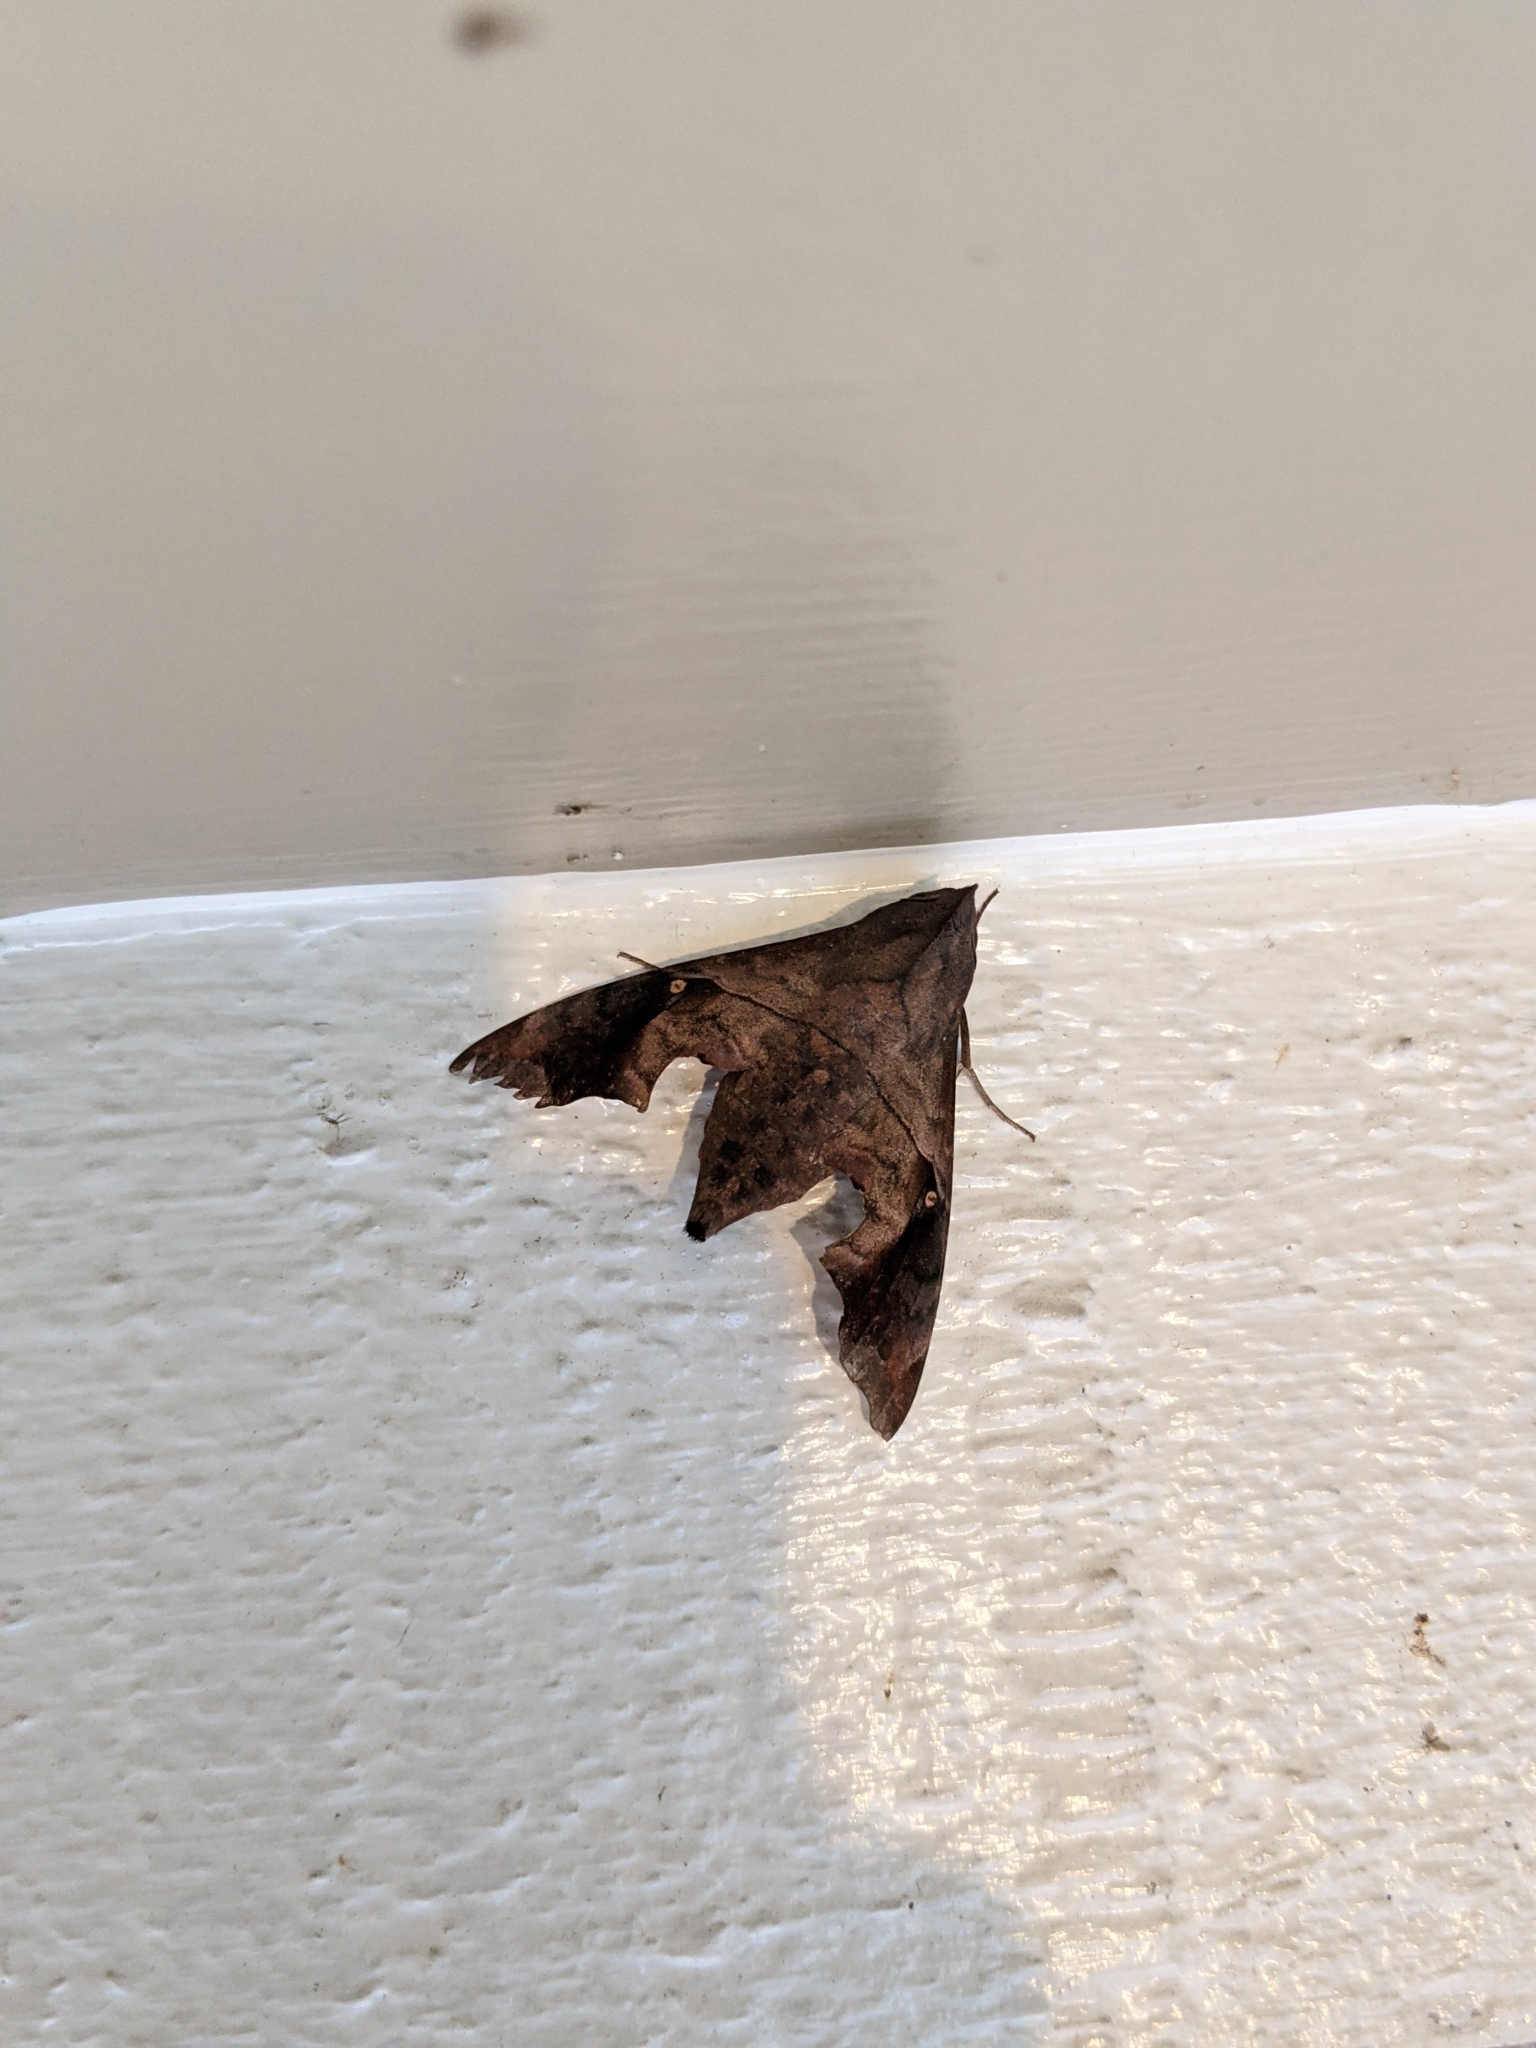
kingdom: Animalia
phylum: Arthropoda
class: Insecta
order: Lepidoptera
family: Sphingidae
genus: Enyo
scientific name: Enyo lugubris
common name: Mournful sphinx
